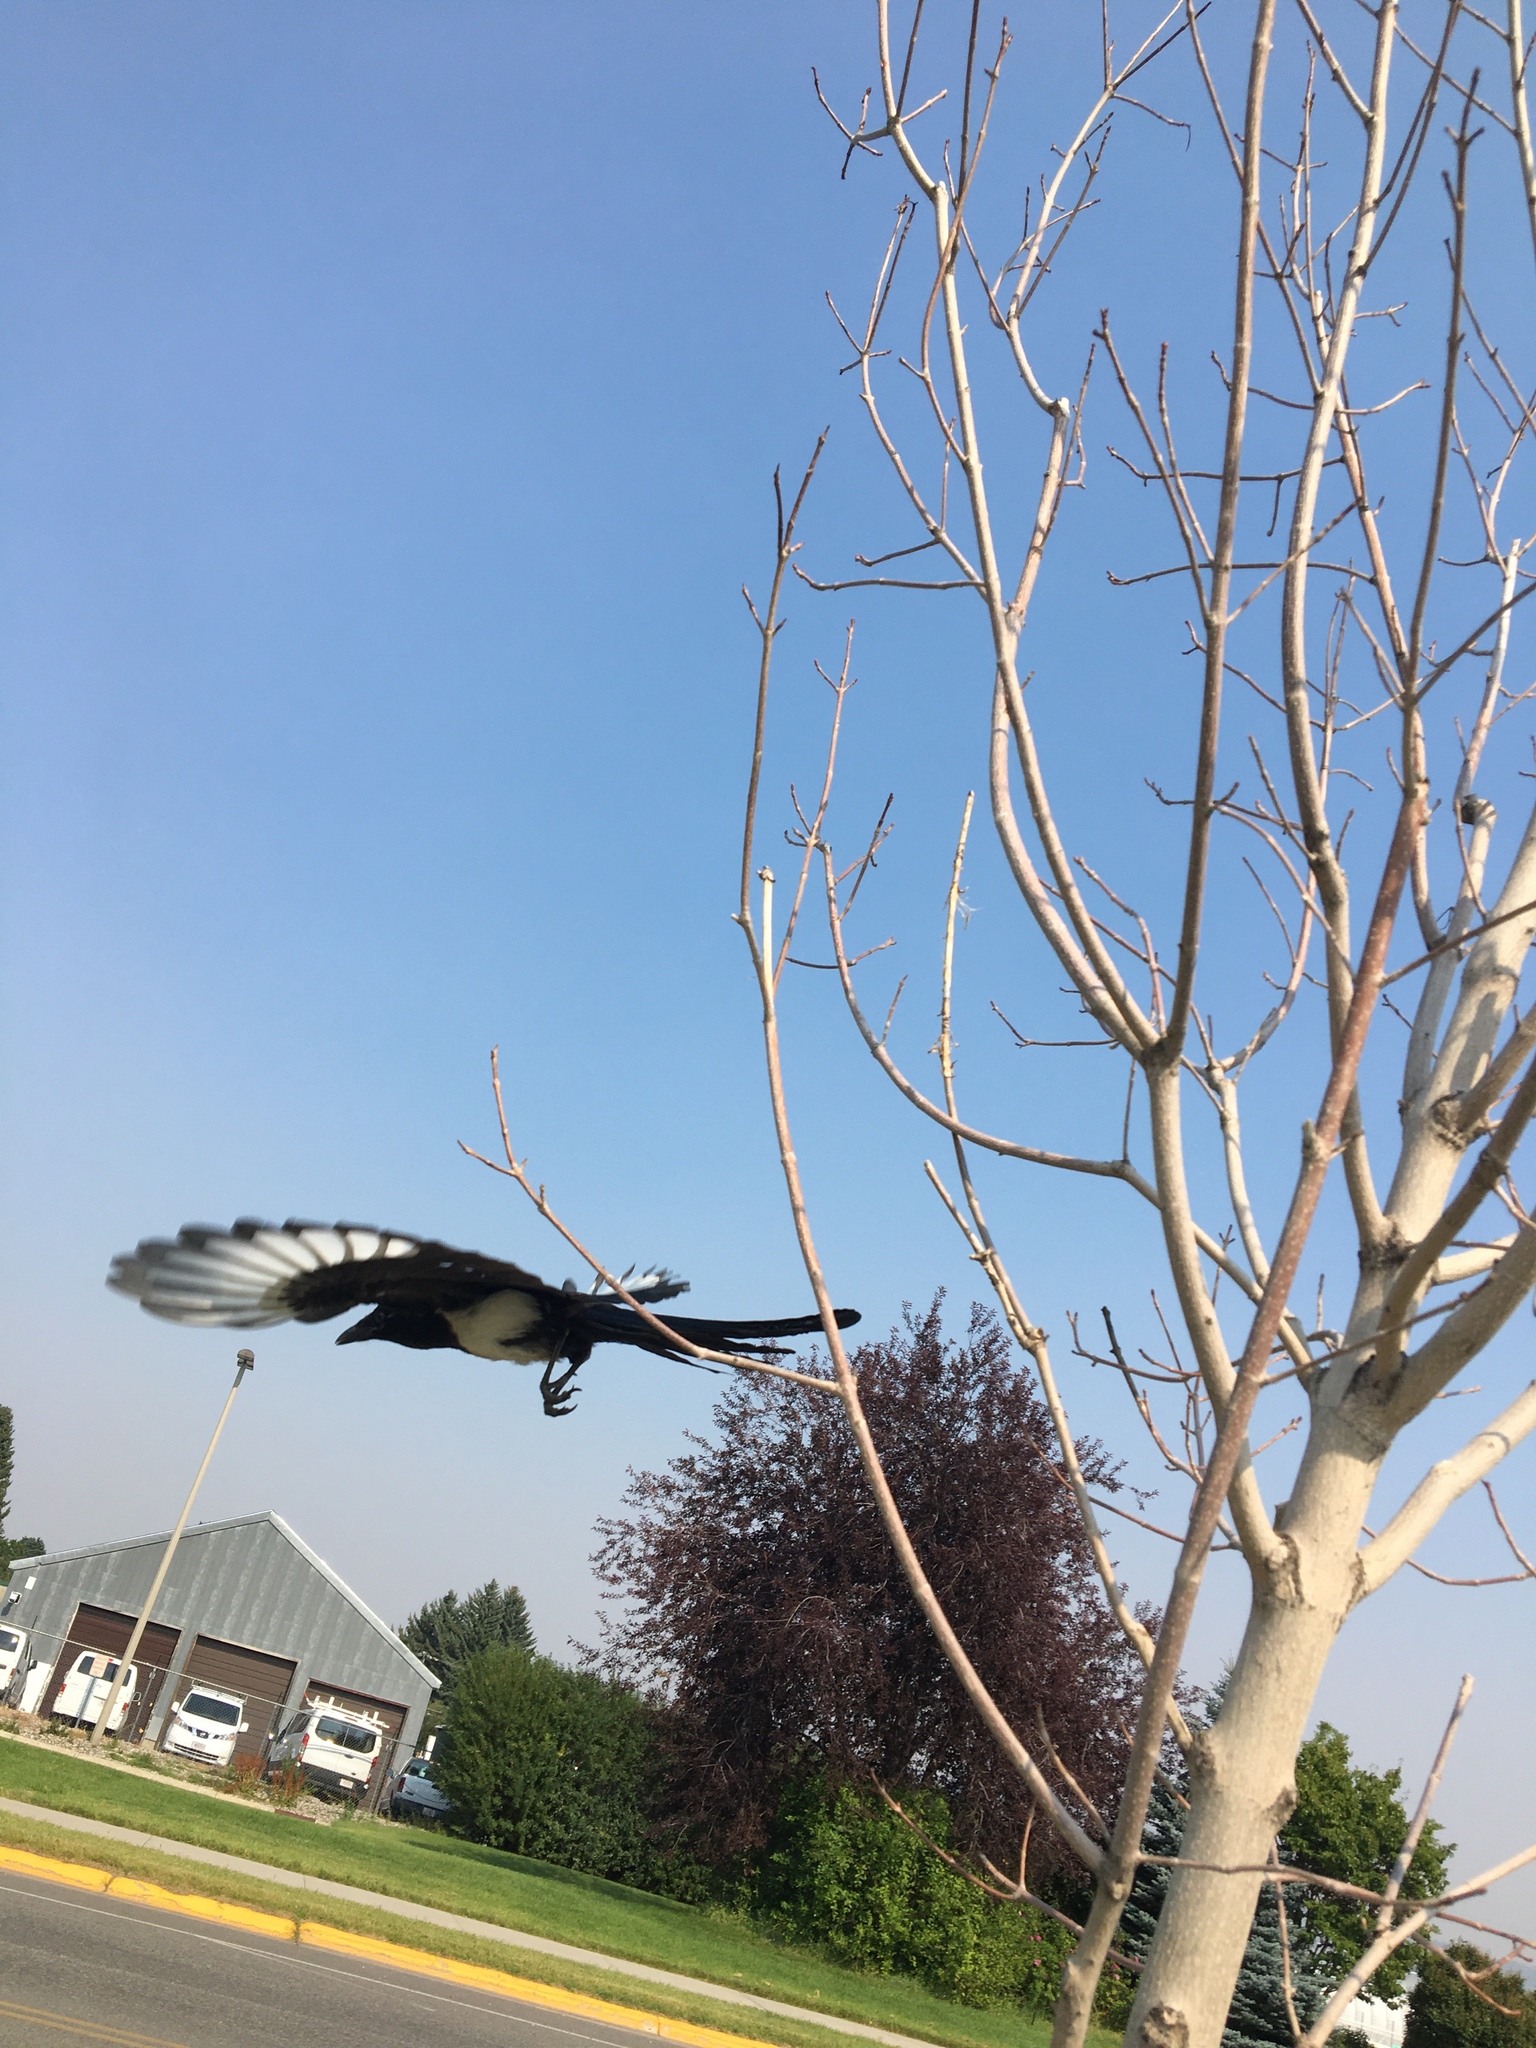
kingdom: Animalia
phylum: Chordata
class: Aves
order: Passeriformes
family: Corvidae
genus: Pica
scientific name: Pica hudsonia
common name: Black-billed magpie
